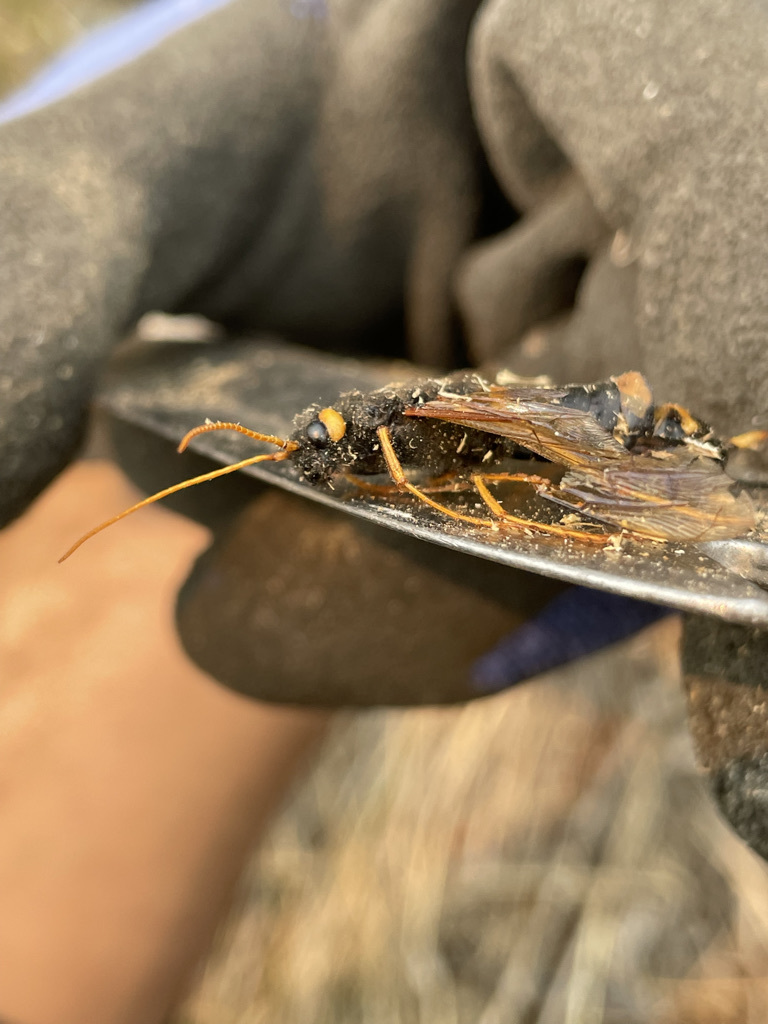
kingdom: Animalia
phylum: Arthropoda
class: Insecta
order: Hymenoptera
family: Siricidae
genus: Urocerus
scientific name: Urocerus flavicornis
